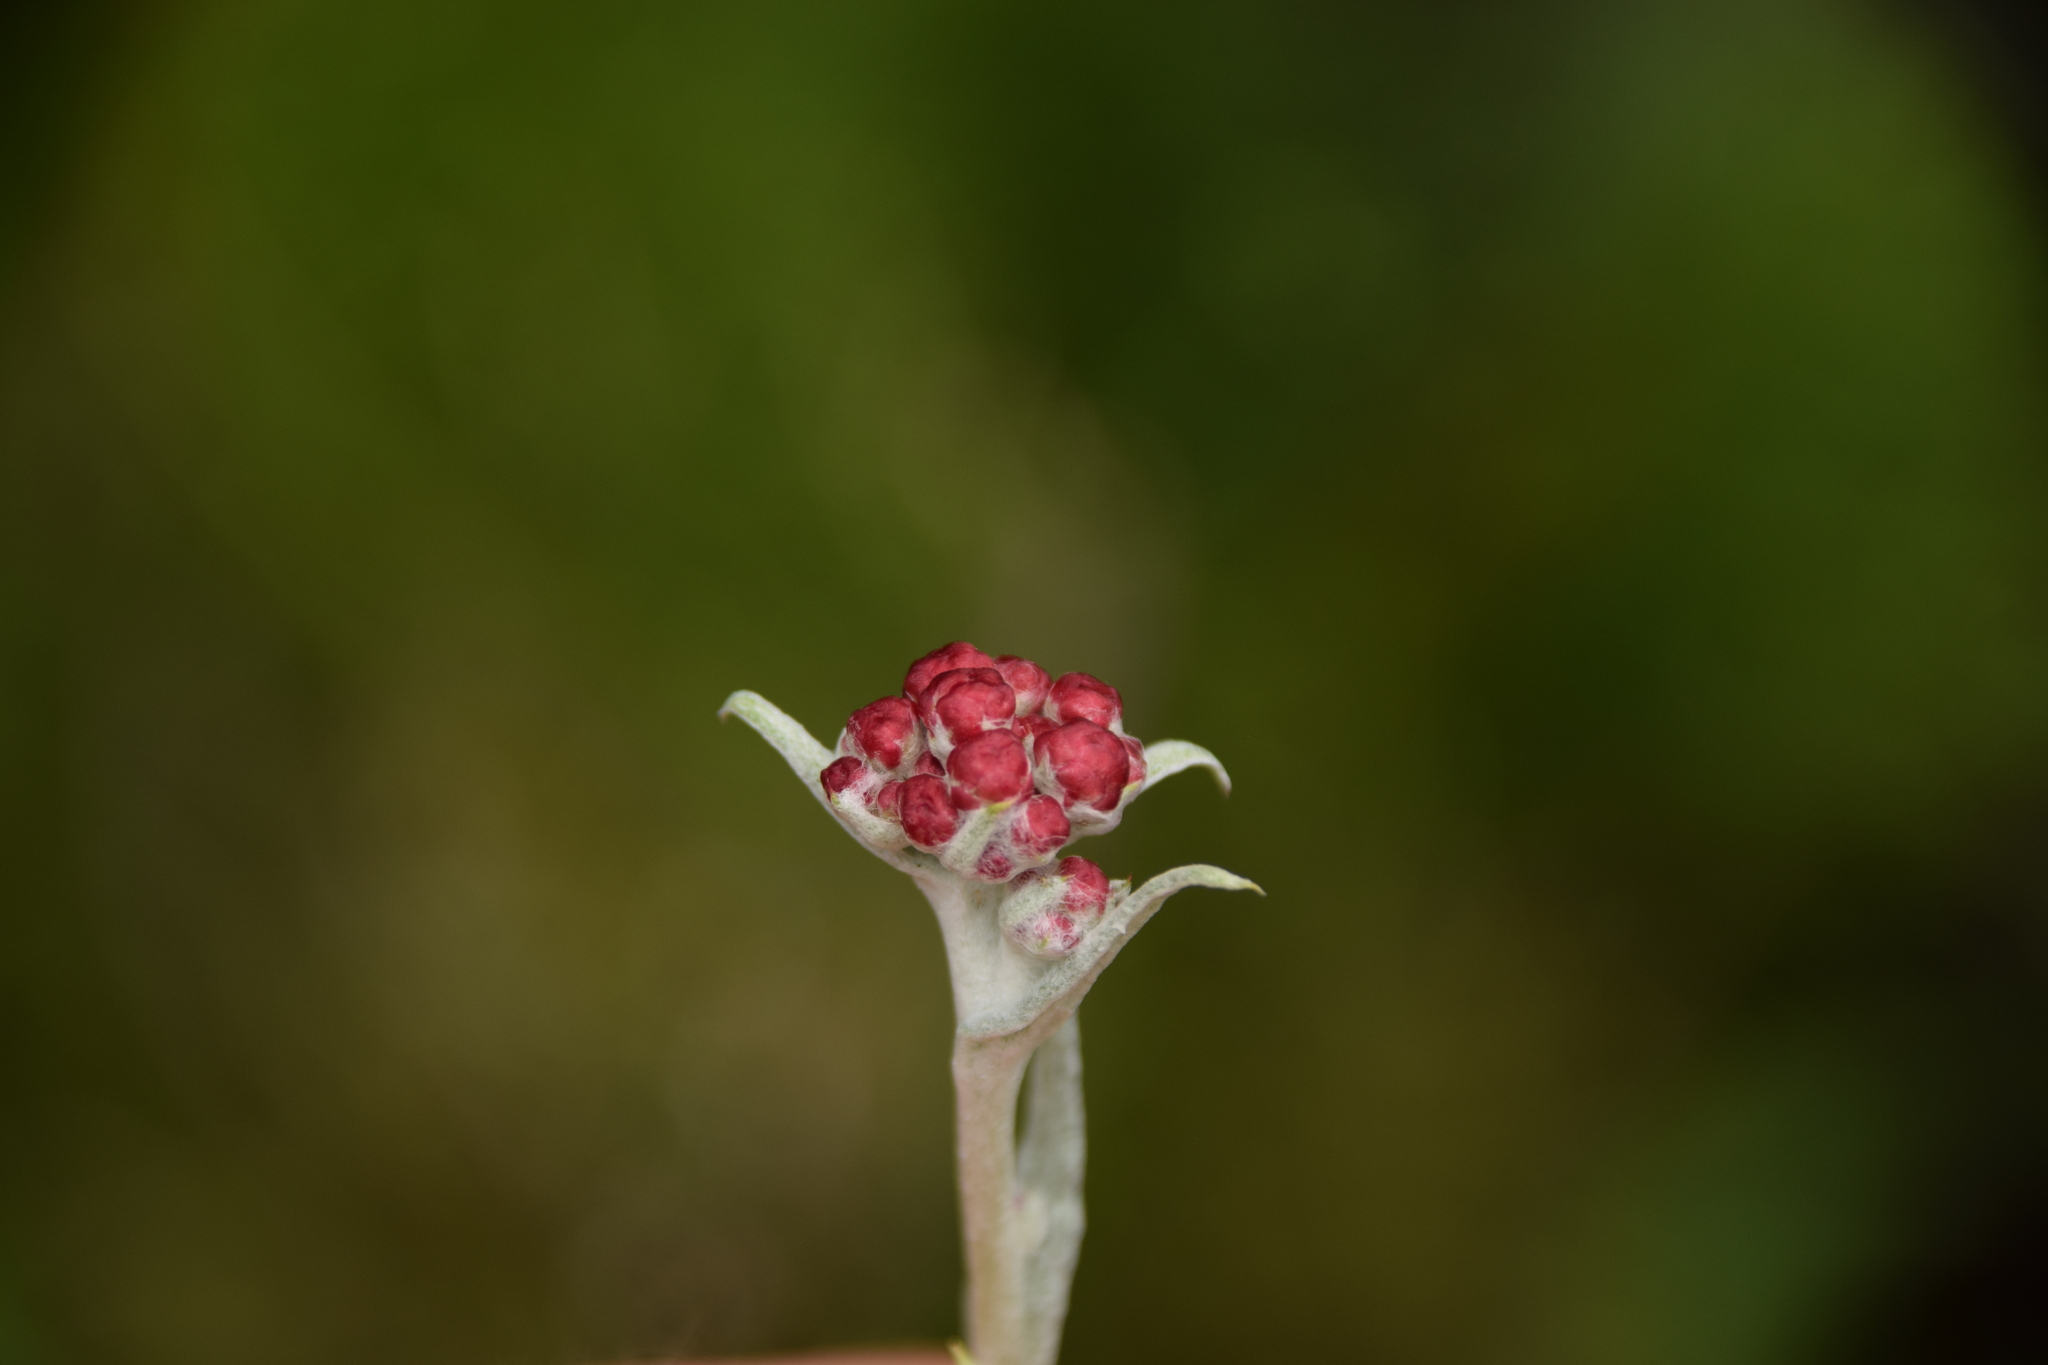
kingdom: Plantae
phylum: Tracheophyta
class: Magnoliopsida
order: Asterales
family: Asteraceae
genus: Helichrysum
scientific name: Helichrysum sanguineum
